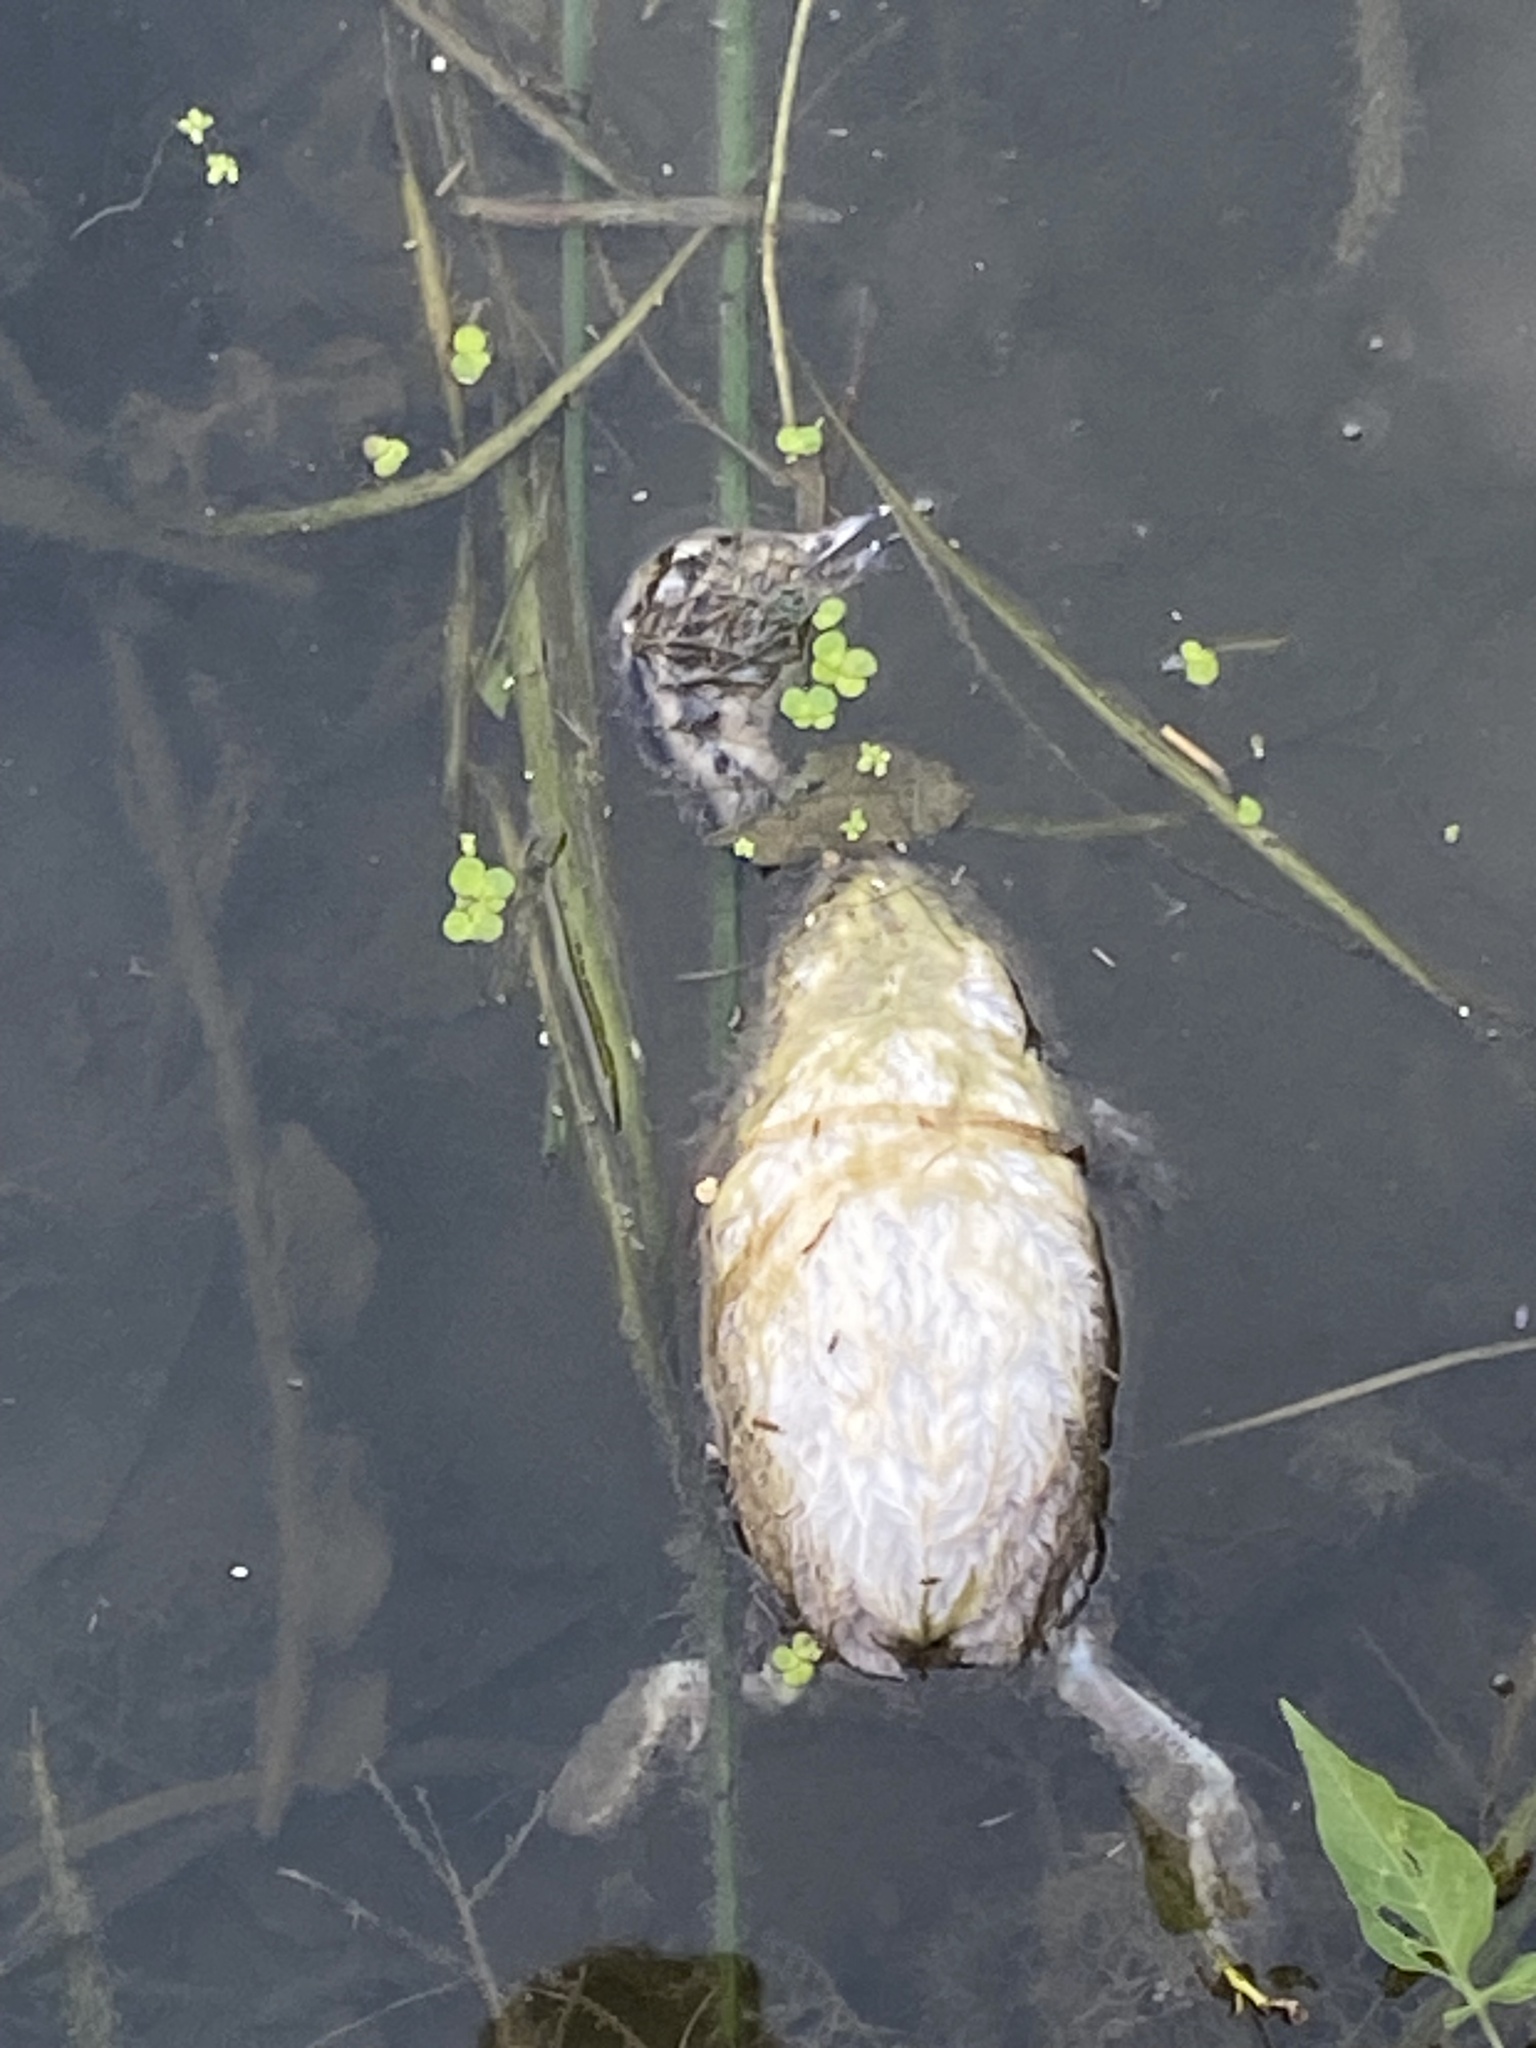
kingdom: Animalia
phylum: Chordata
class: Aves
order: Podicipediformes
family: Podicipedidae
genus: Podiceps
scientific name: Podiceps cristatus
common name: Great crested grebe
